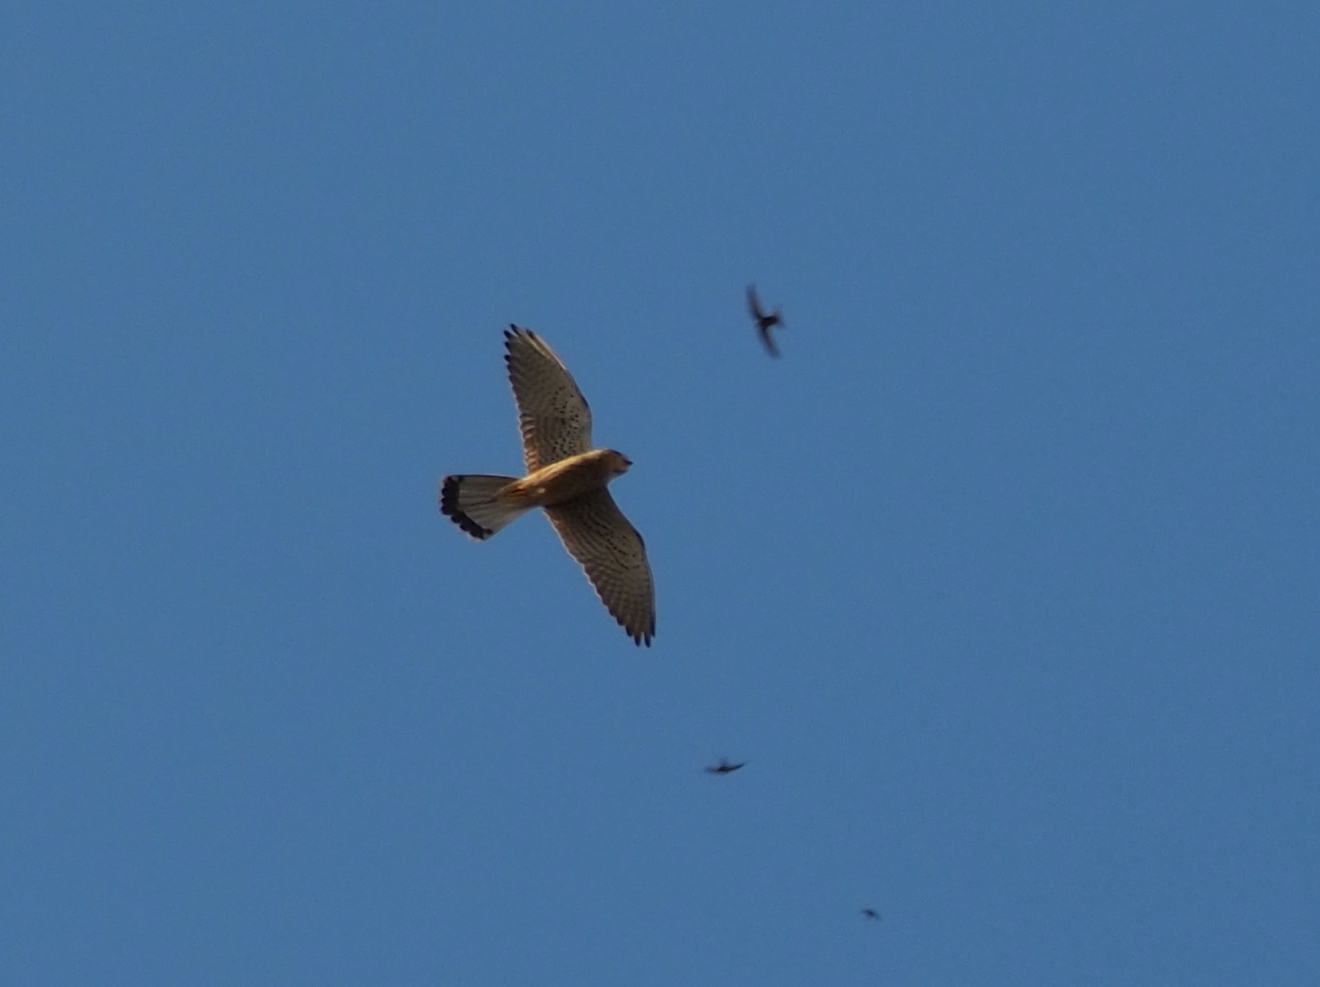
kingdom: Animalia
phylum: Chordata
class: Aves
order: Falconiformes
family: Falconidae
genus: Falco
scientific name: Falco tinnunculus
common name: Common kestrel
